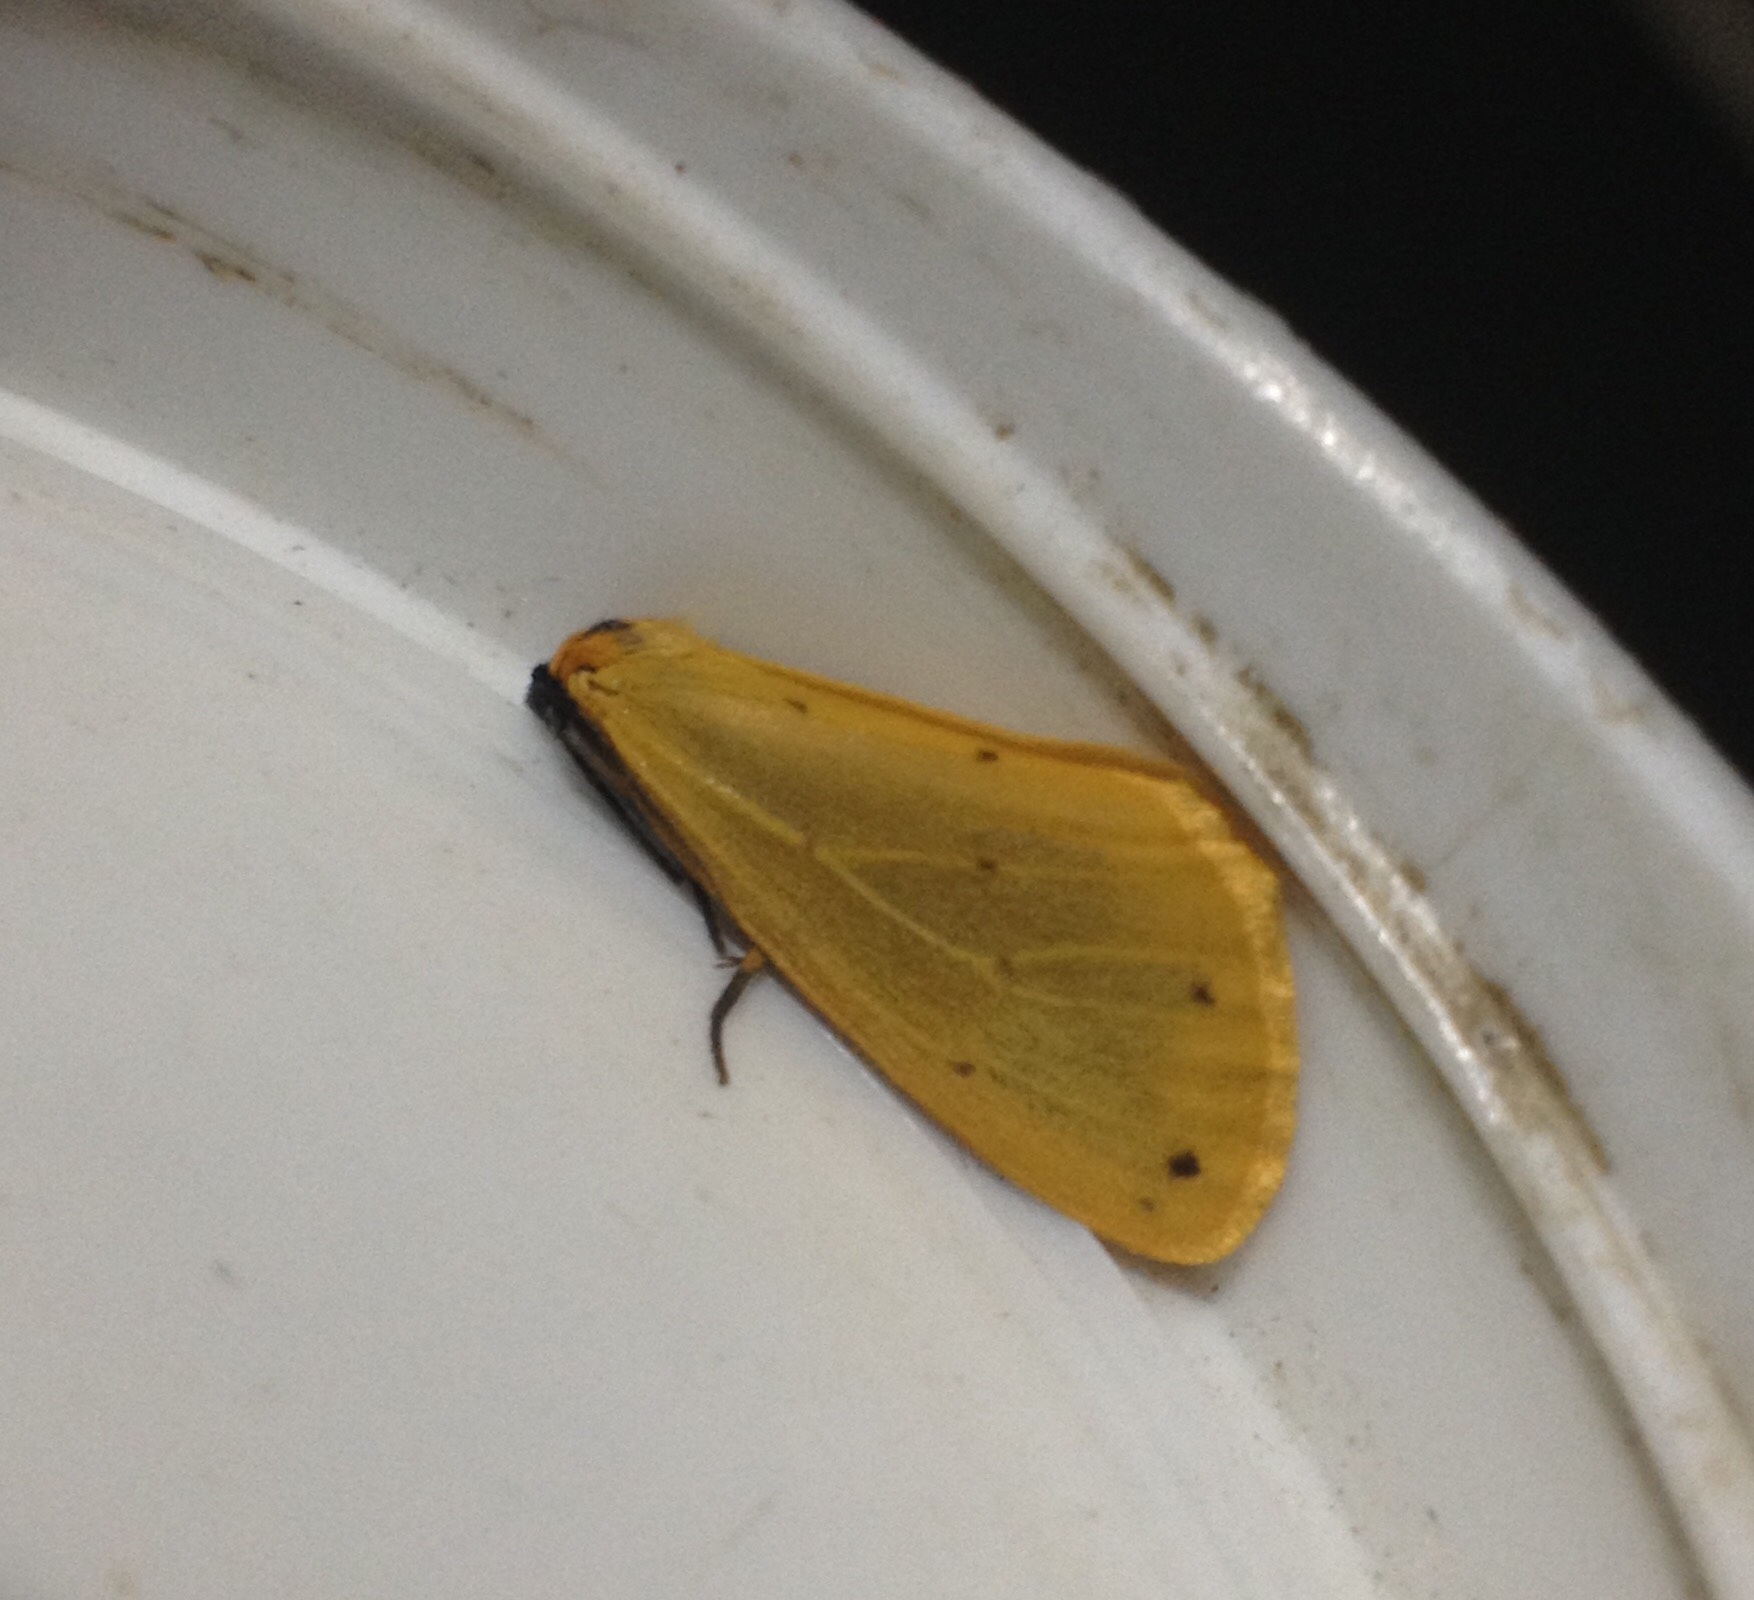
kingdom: Animalia
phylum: Arthropoda
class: Insecta
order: Lepidoptera
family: Erebidae
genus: Setina
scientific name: Setina irrorella
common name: Dew moth
